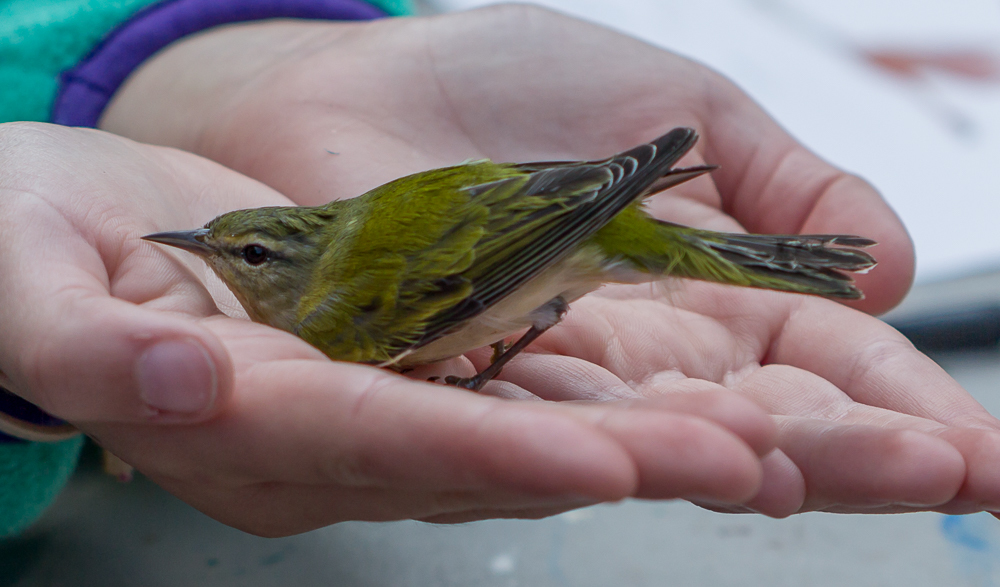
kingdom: Animalia
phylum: Chordata
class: Aves
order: Passeriformes
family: Parulidae
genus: Leiothlypis
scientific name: Leiothlypis peregrina
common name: Tennessee warbler
